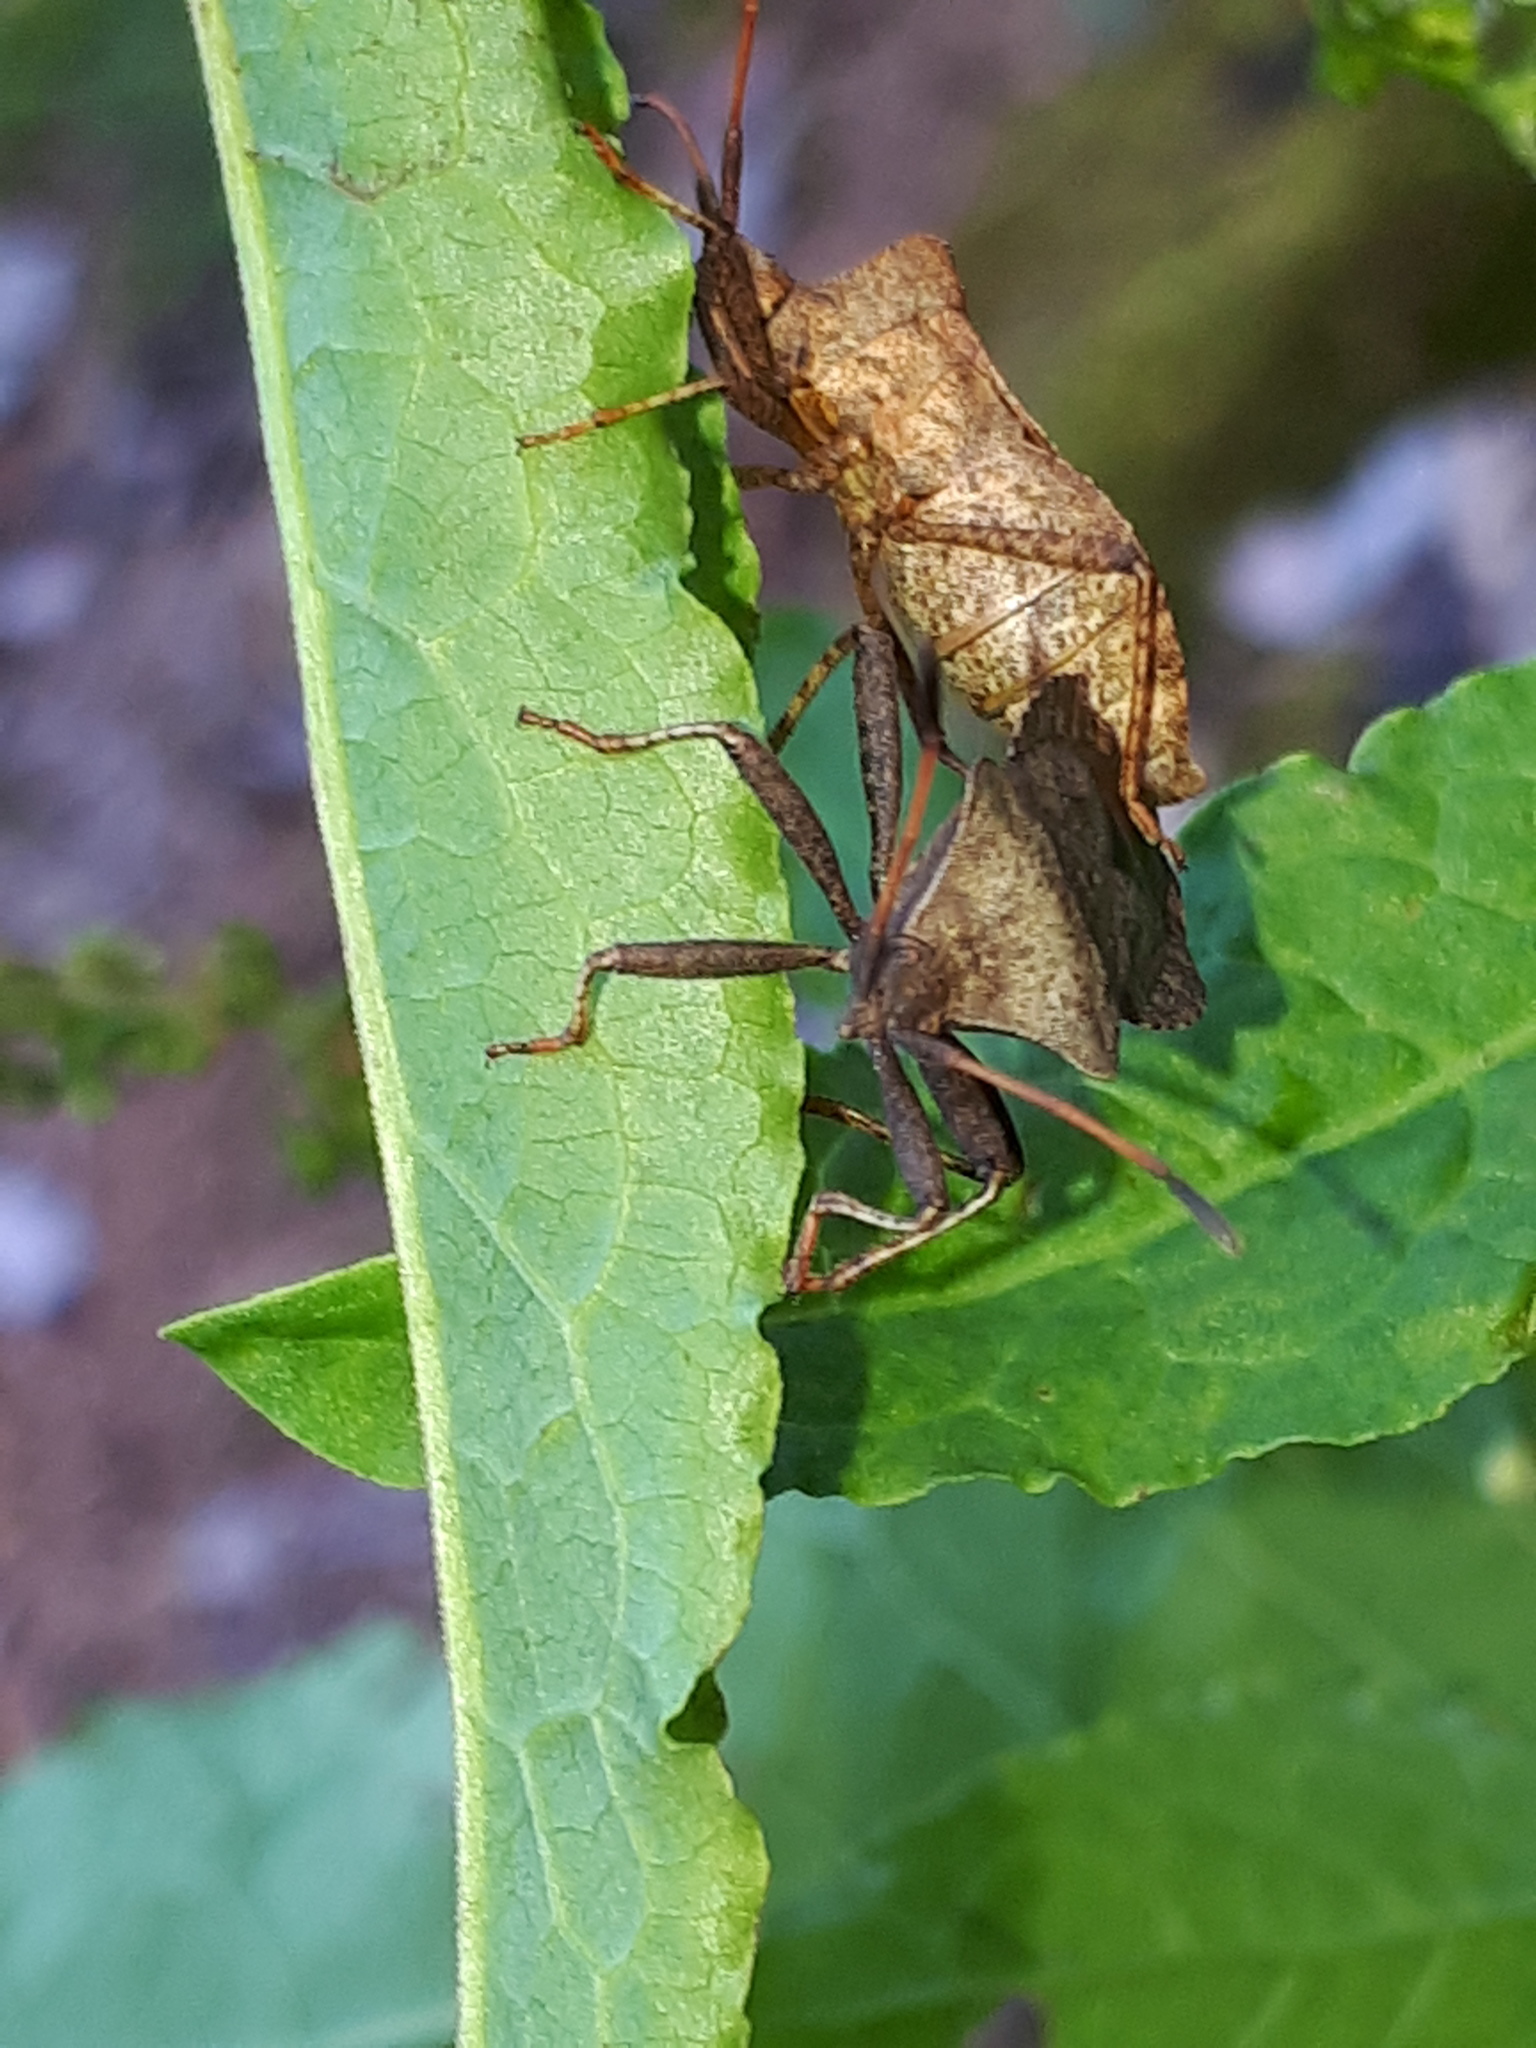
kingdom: Animalia
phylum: Arthropoda
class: Insecta
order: Hemiptera
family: Coreidae
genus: Coreus
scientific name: Coreus marginatus
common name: Dock bug
